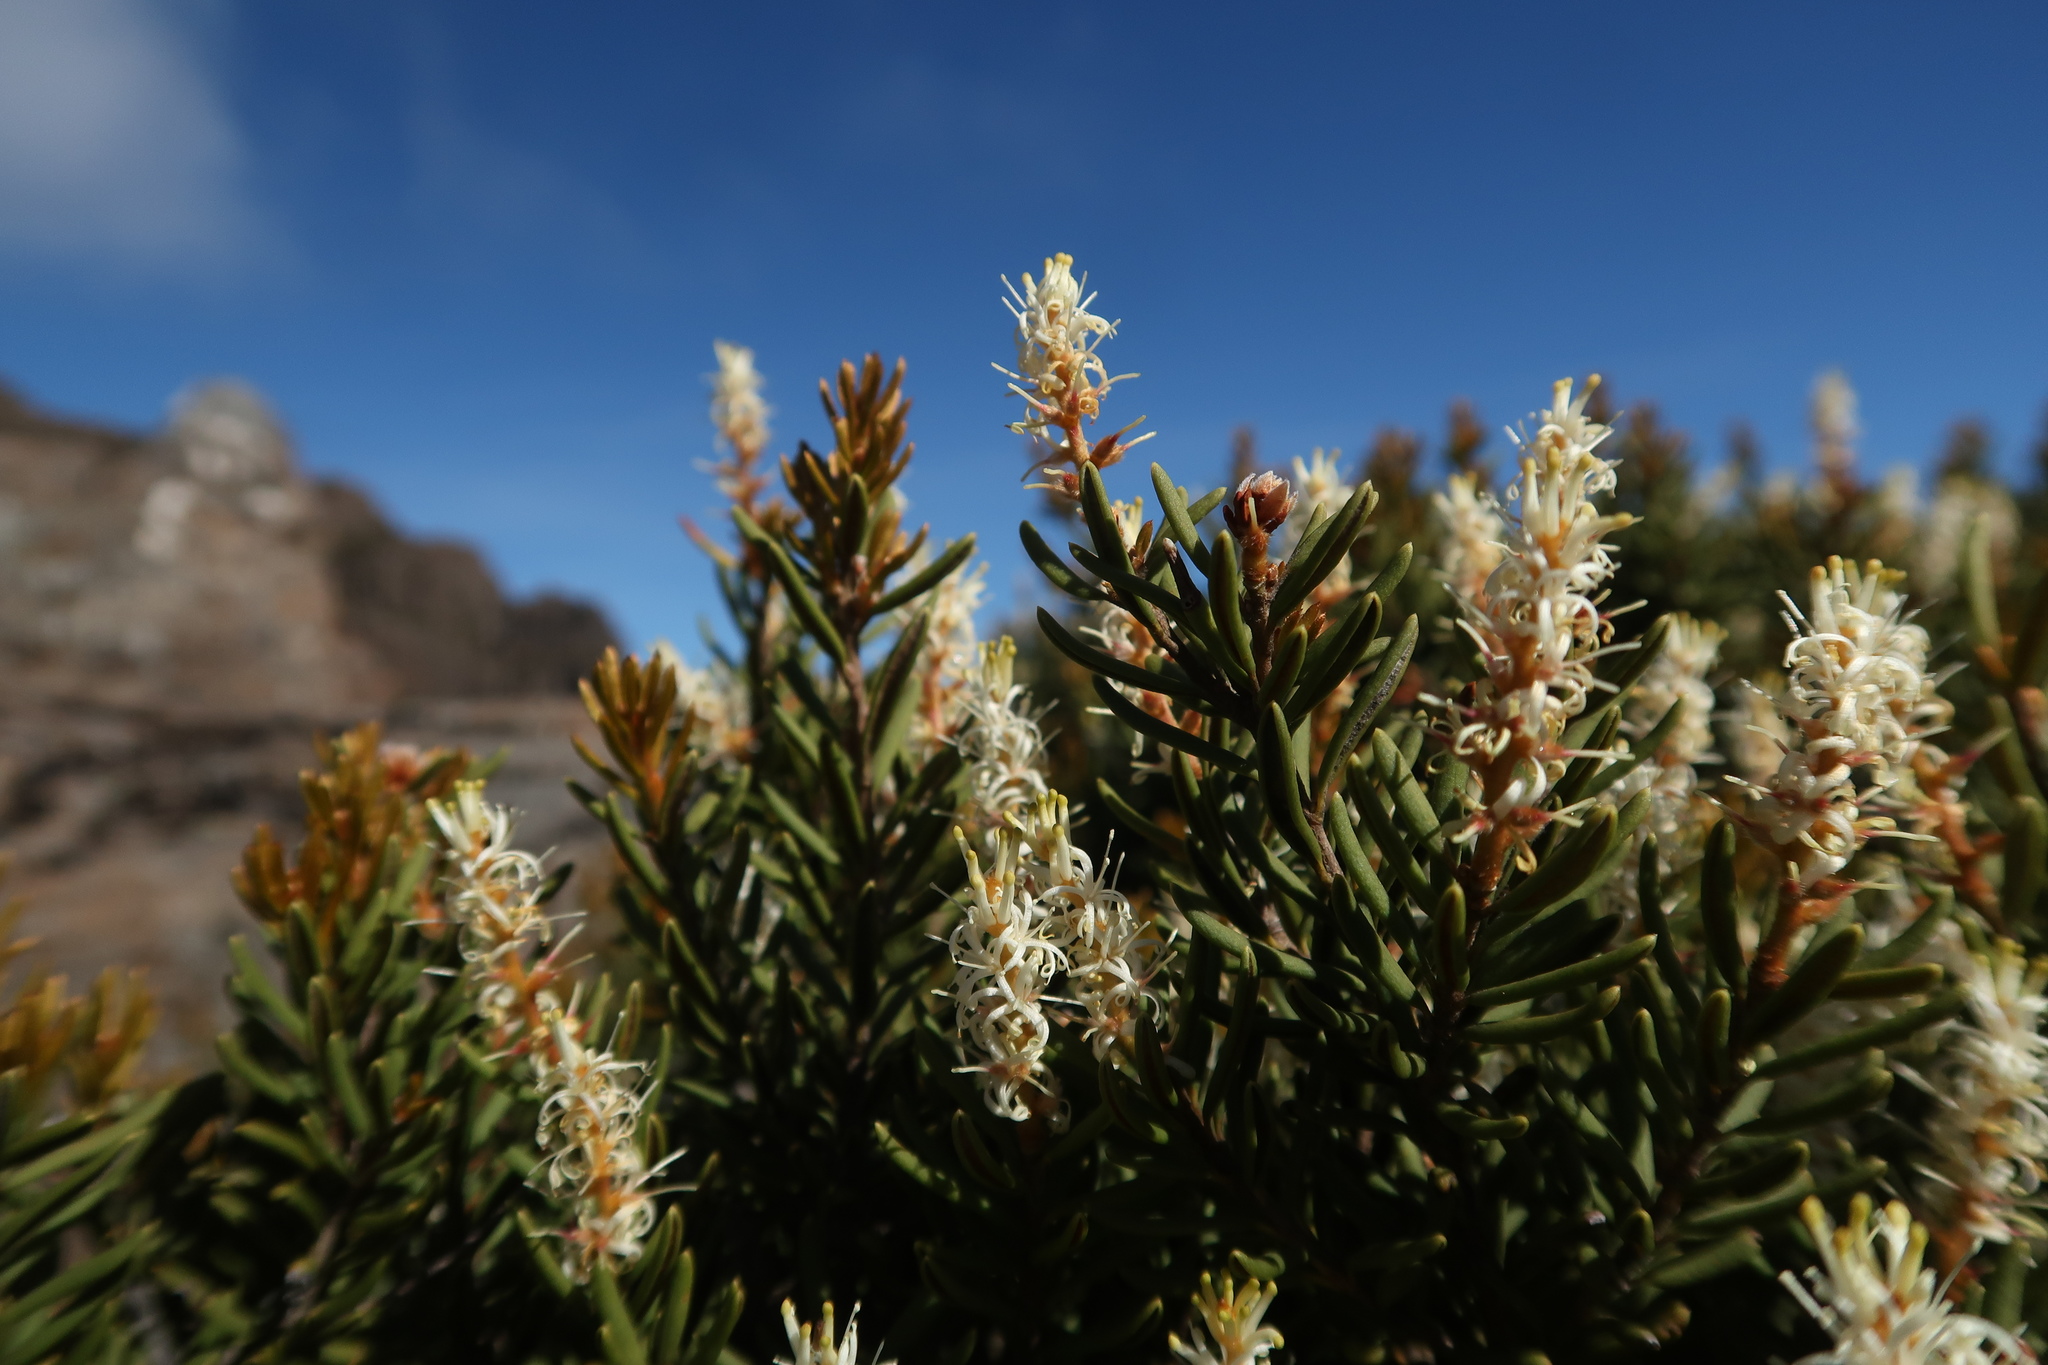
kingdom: Plantae
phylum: Tracheophyta
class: Magnoliopsida
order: Proteales
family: Proteaceae
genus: Orites
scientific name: Orites revolutus
